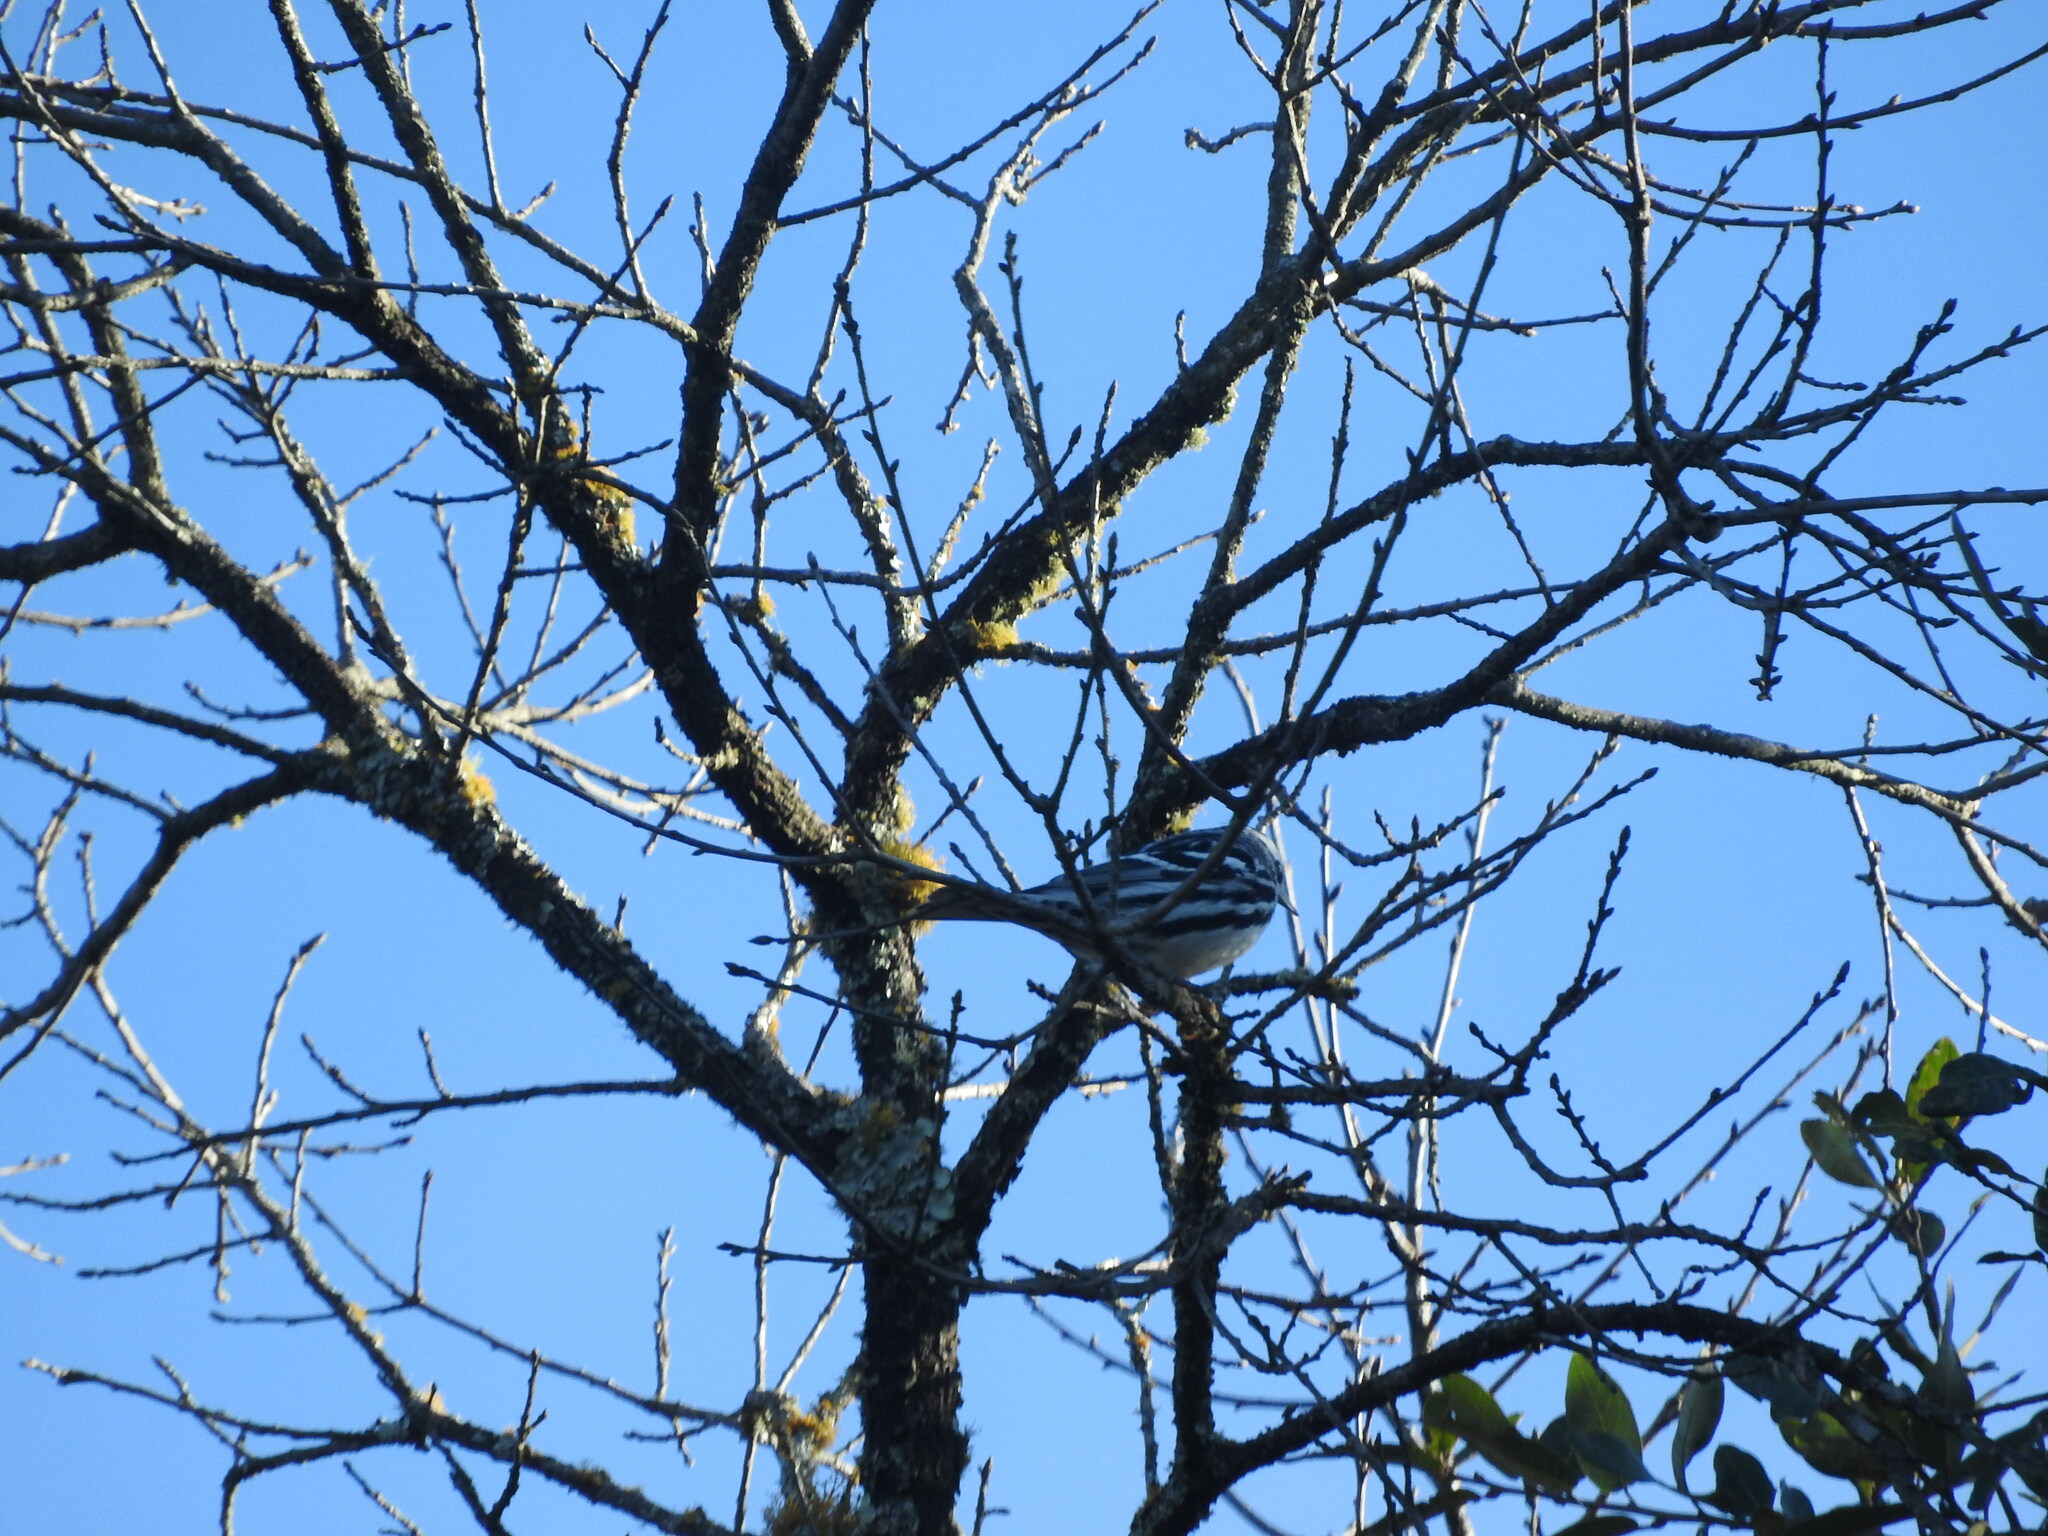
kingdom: Animalia
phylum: Chordata
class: Aves
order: Passeriformes
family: Parulidae
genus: Mniotilta
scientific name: Mniotilta varia
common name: Black-and-white warbler
